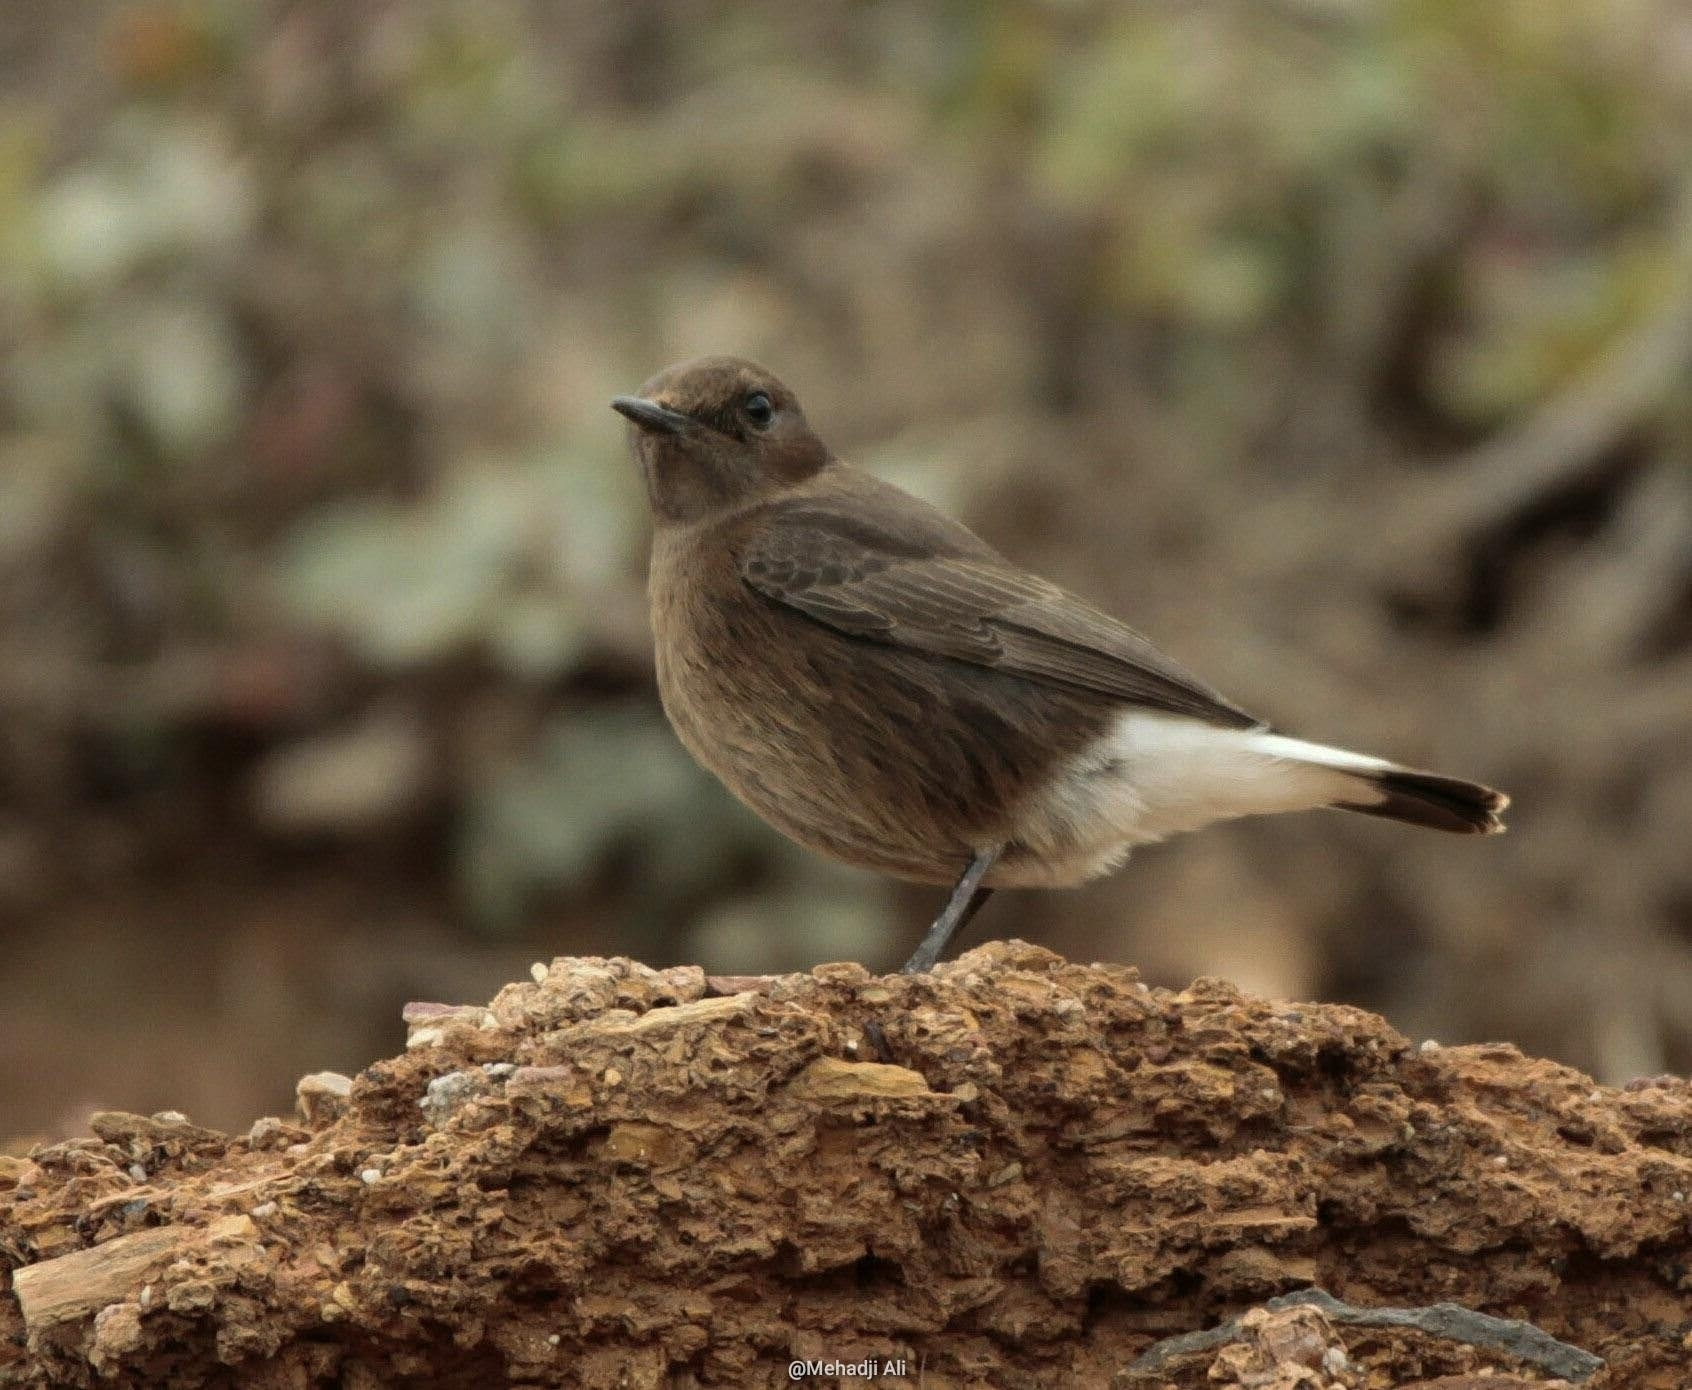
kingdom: Animalia
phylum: Chordata
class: Aves
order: Passeriformes
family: Muscicapidae
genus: Oenanthe
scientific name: Oenanthe leucura
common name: Black wheatear
